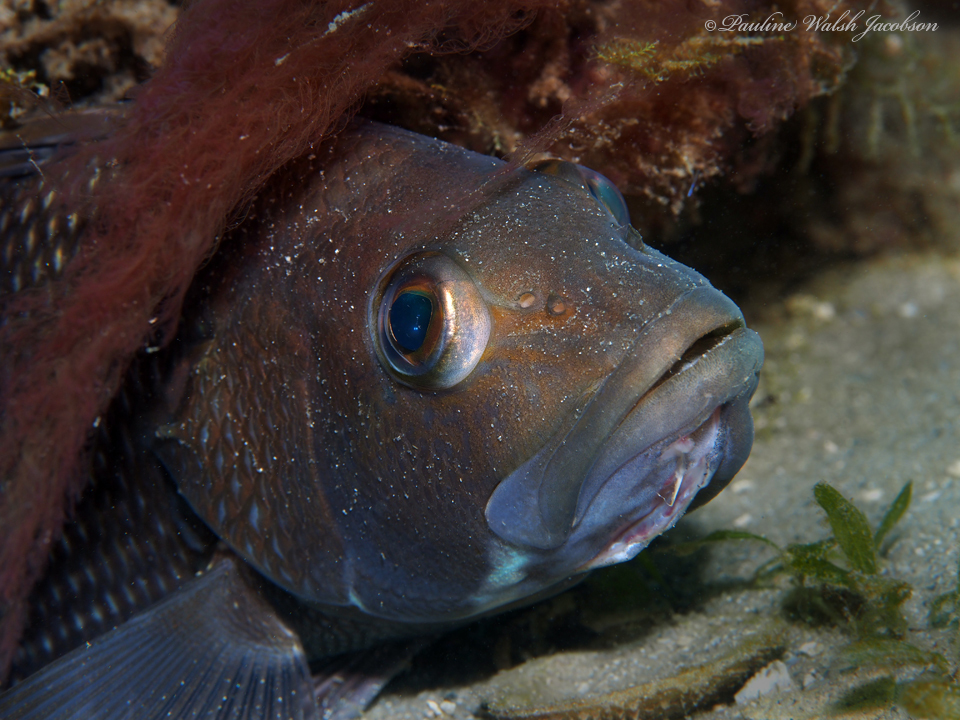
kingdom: Animalia
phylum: Chordata
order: Perciformes
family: Serranidae
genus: Centropristis
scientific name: Centropristis striata
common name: Black sea bass
